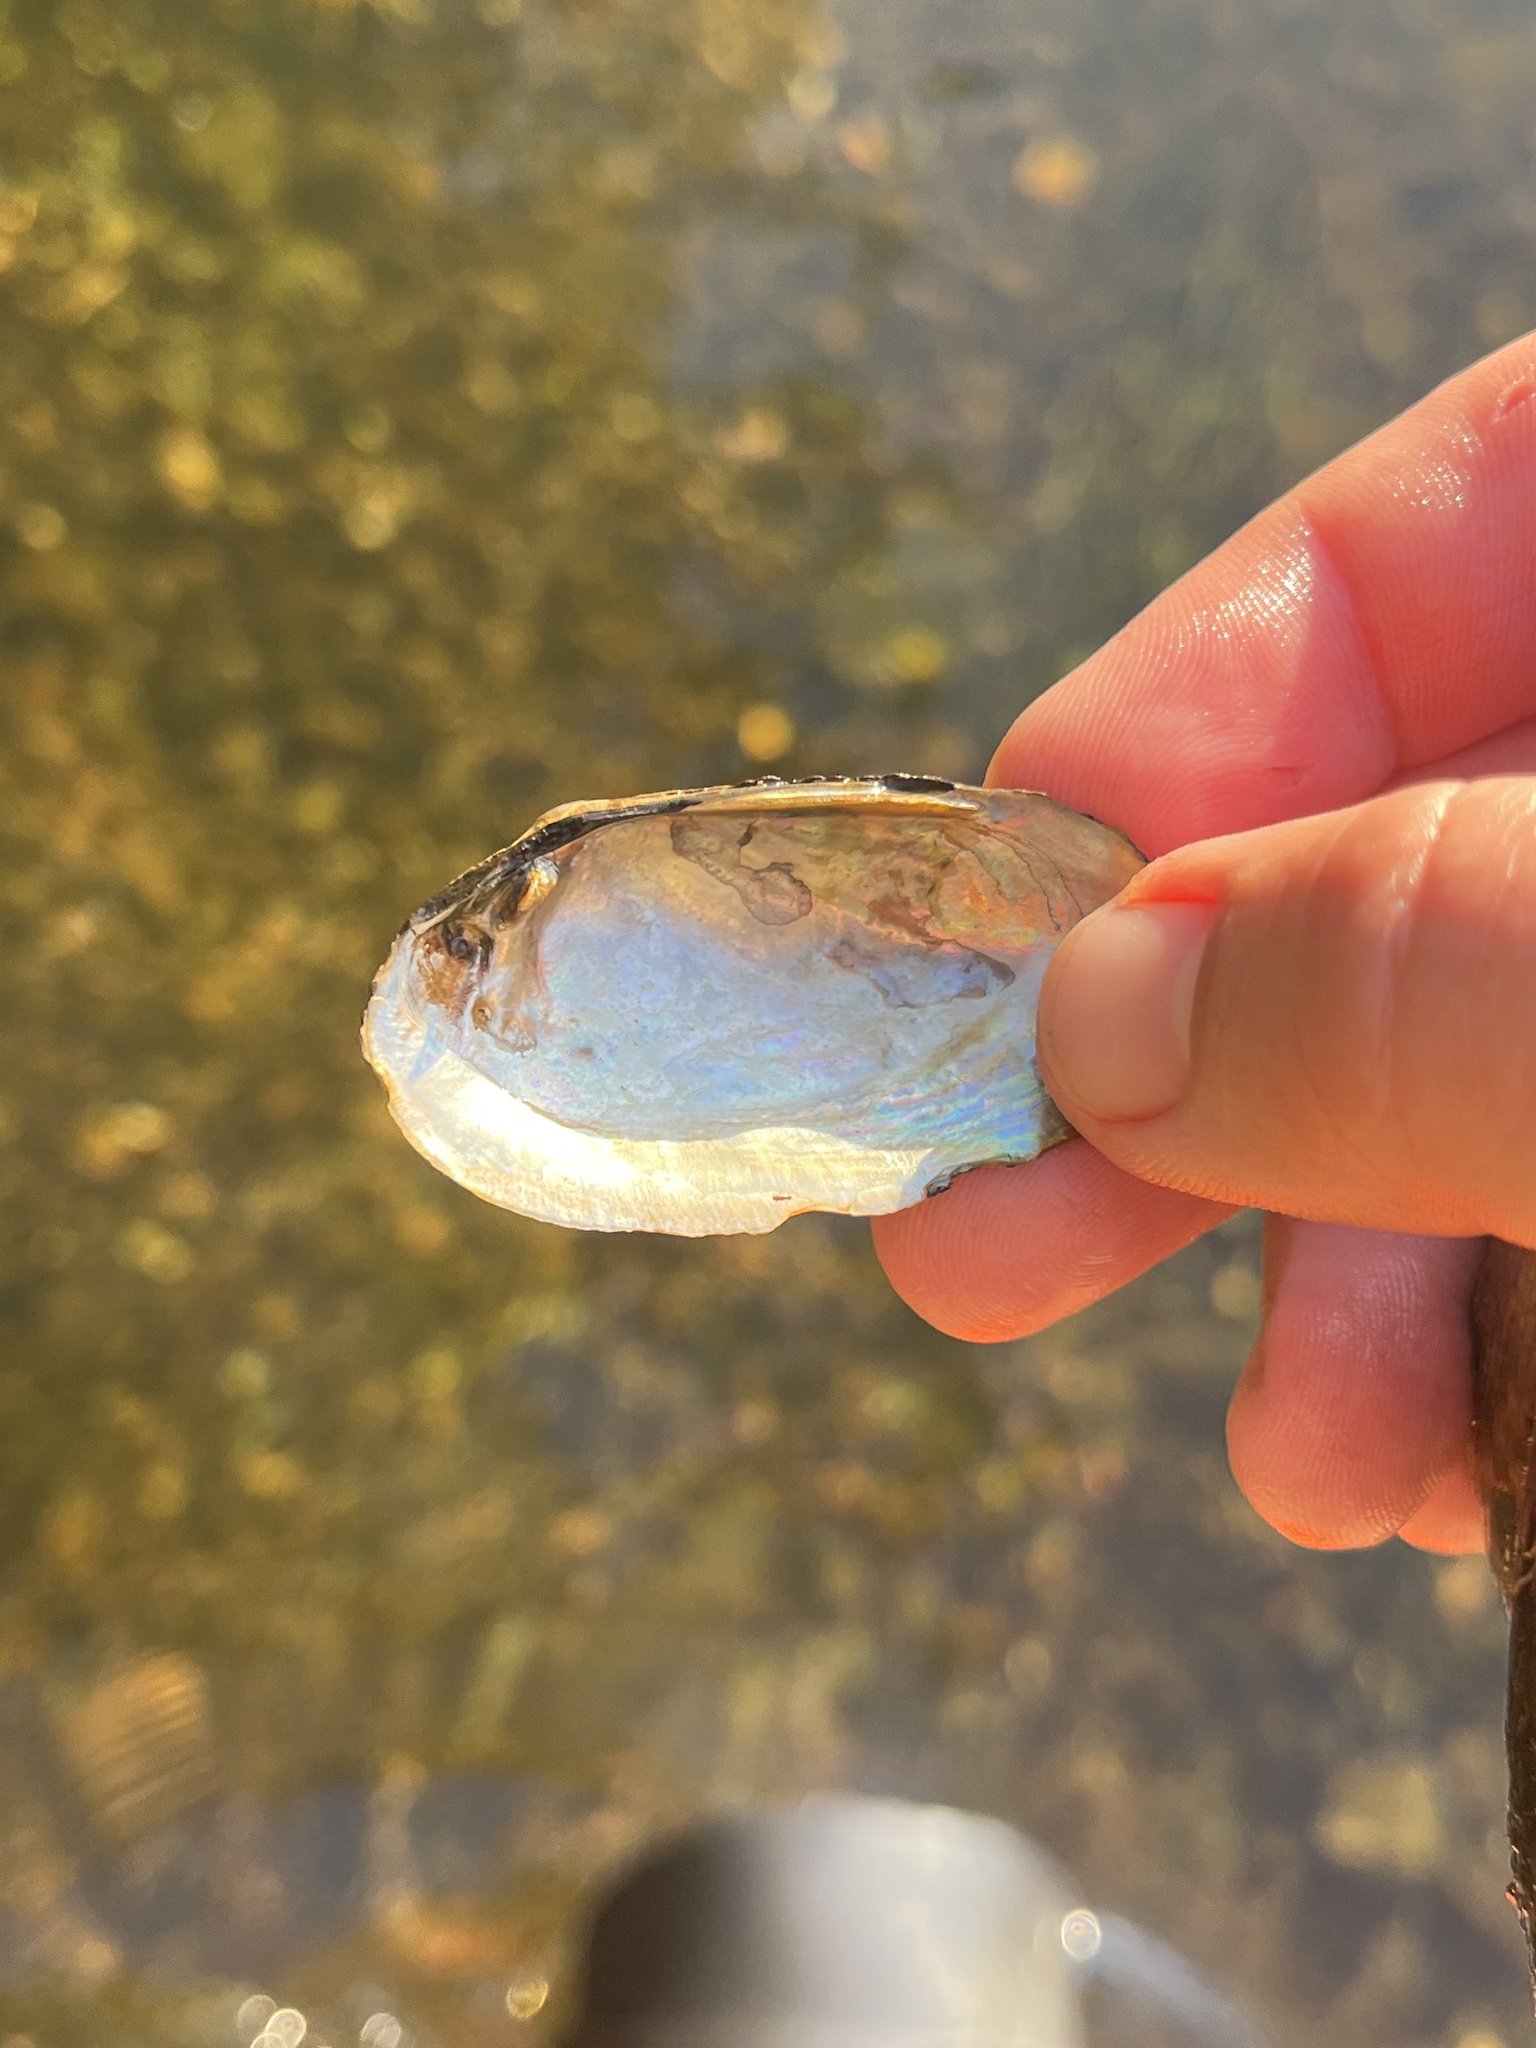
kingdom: Animalia
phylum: Mollusca
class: Bivalvia
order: Unionida
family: Unionidae
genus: Venustaconcha
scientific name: Venustaconcha ellipsiformis
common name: Ellipse
